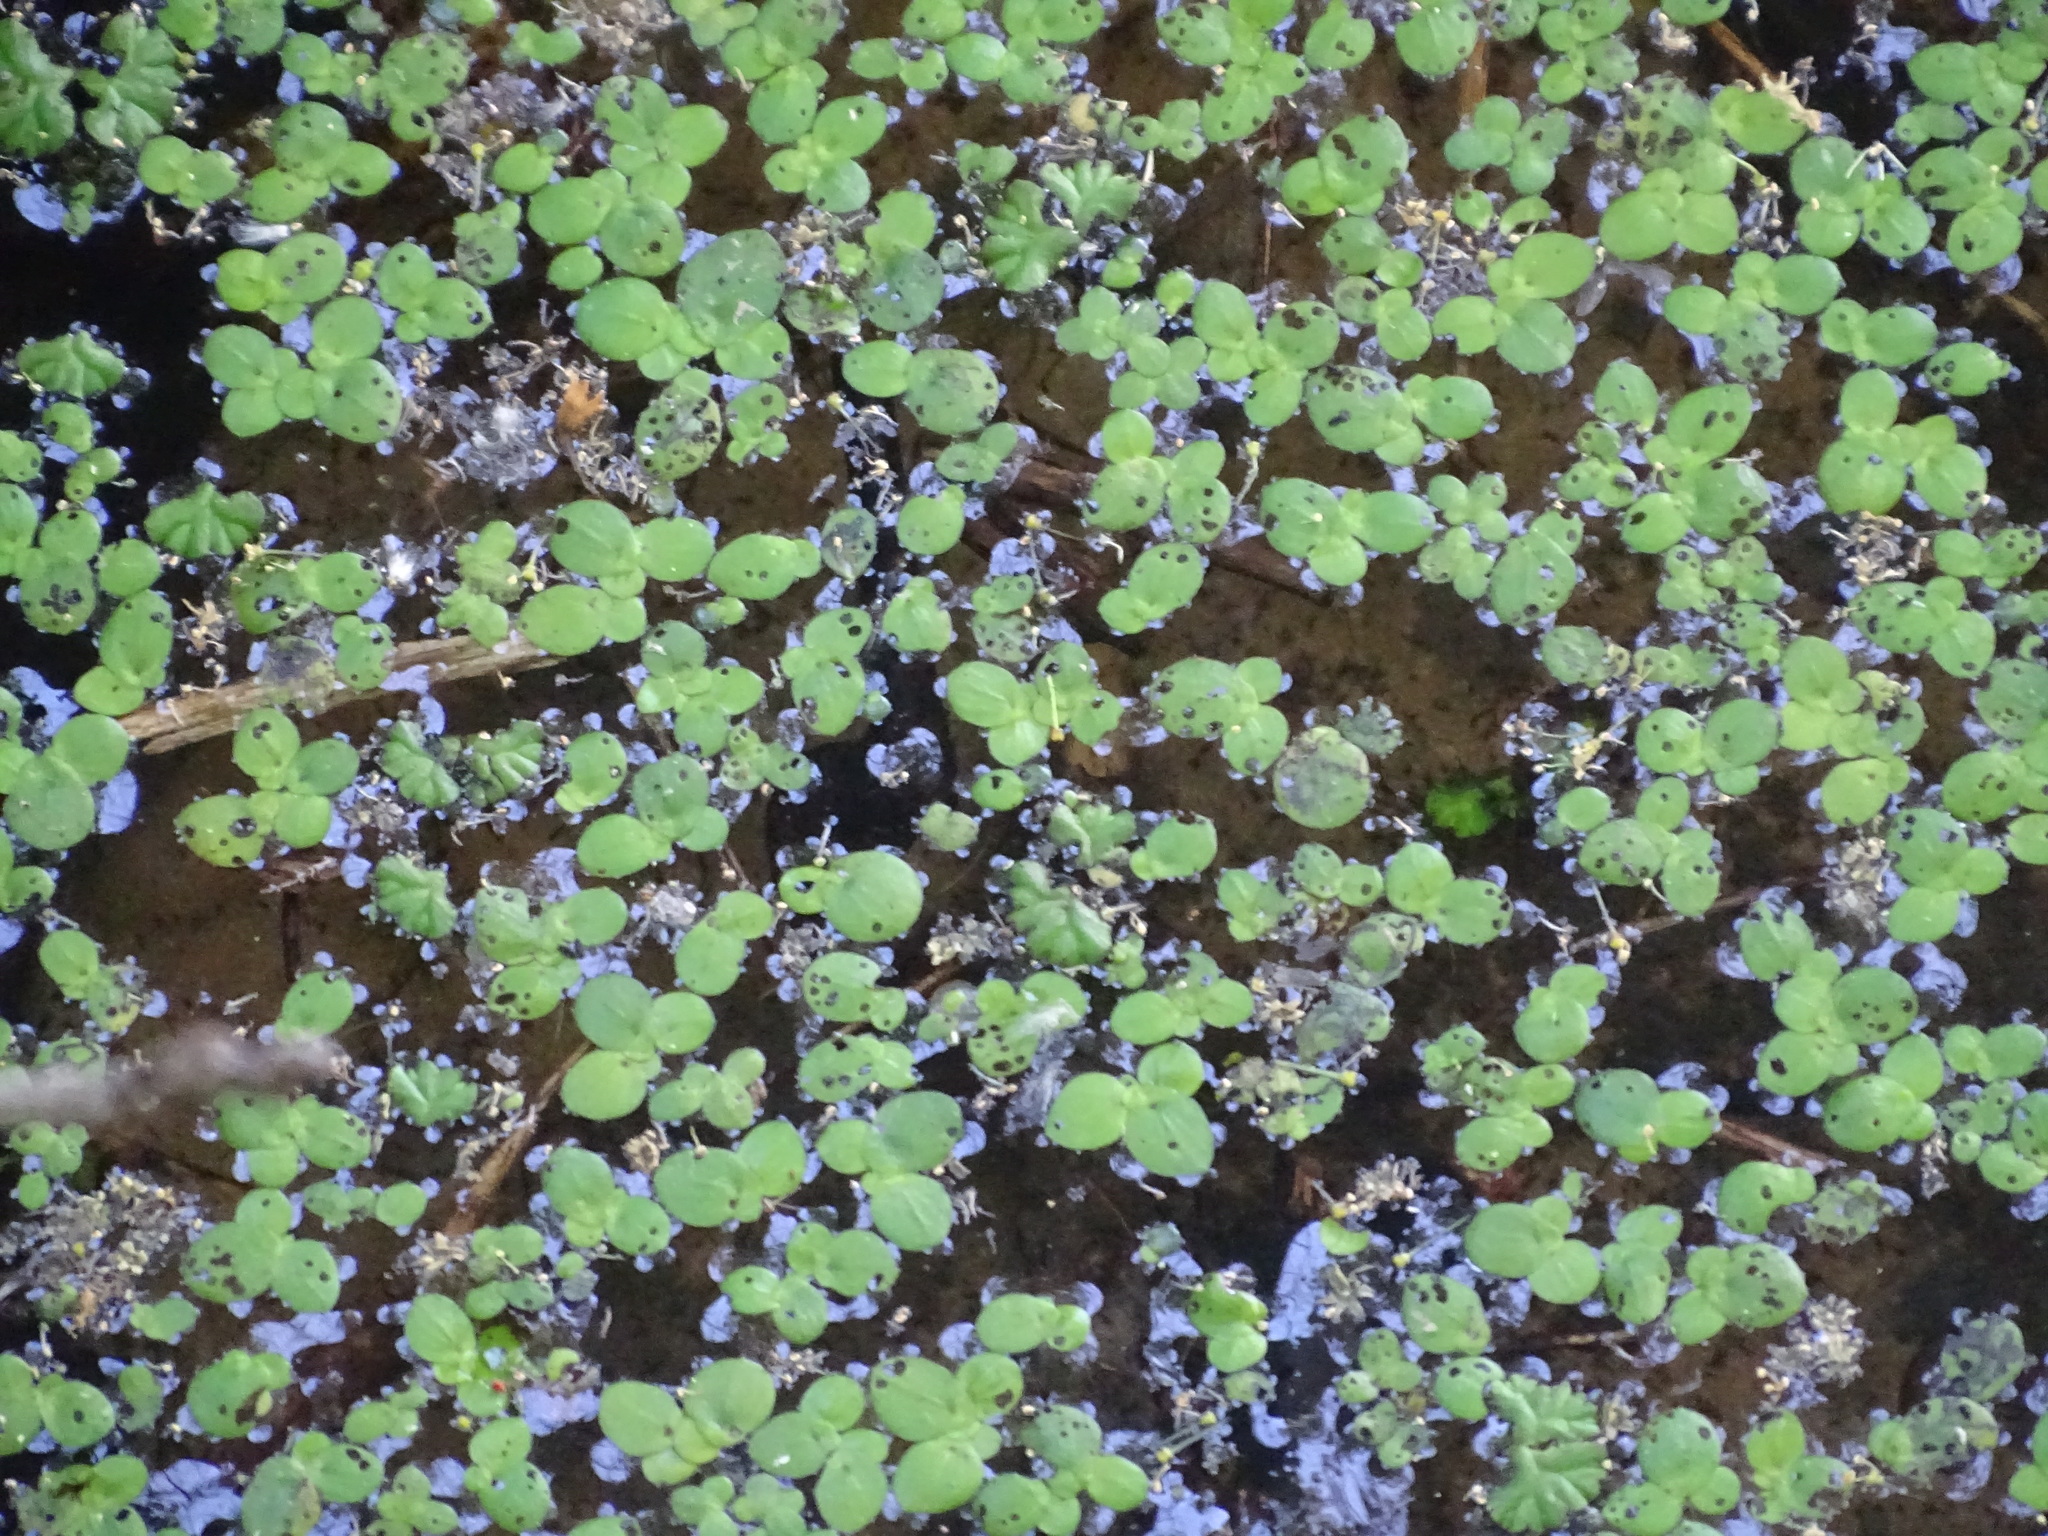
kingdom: Plantae
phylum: Tracheophyta
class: Liliopsida
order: Alismatales
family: Araceae
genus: Lemna
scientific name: Lemna minor
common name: Common duckweed
